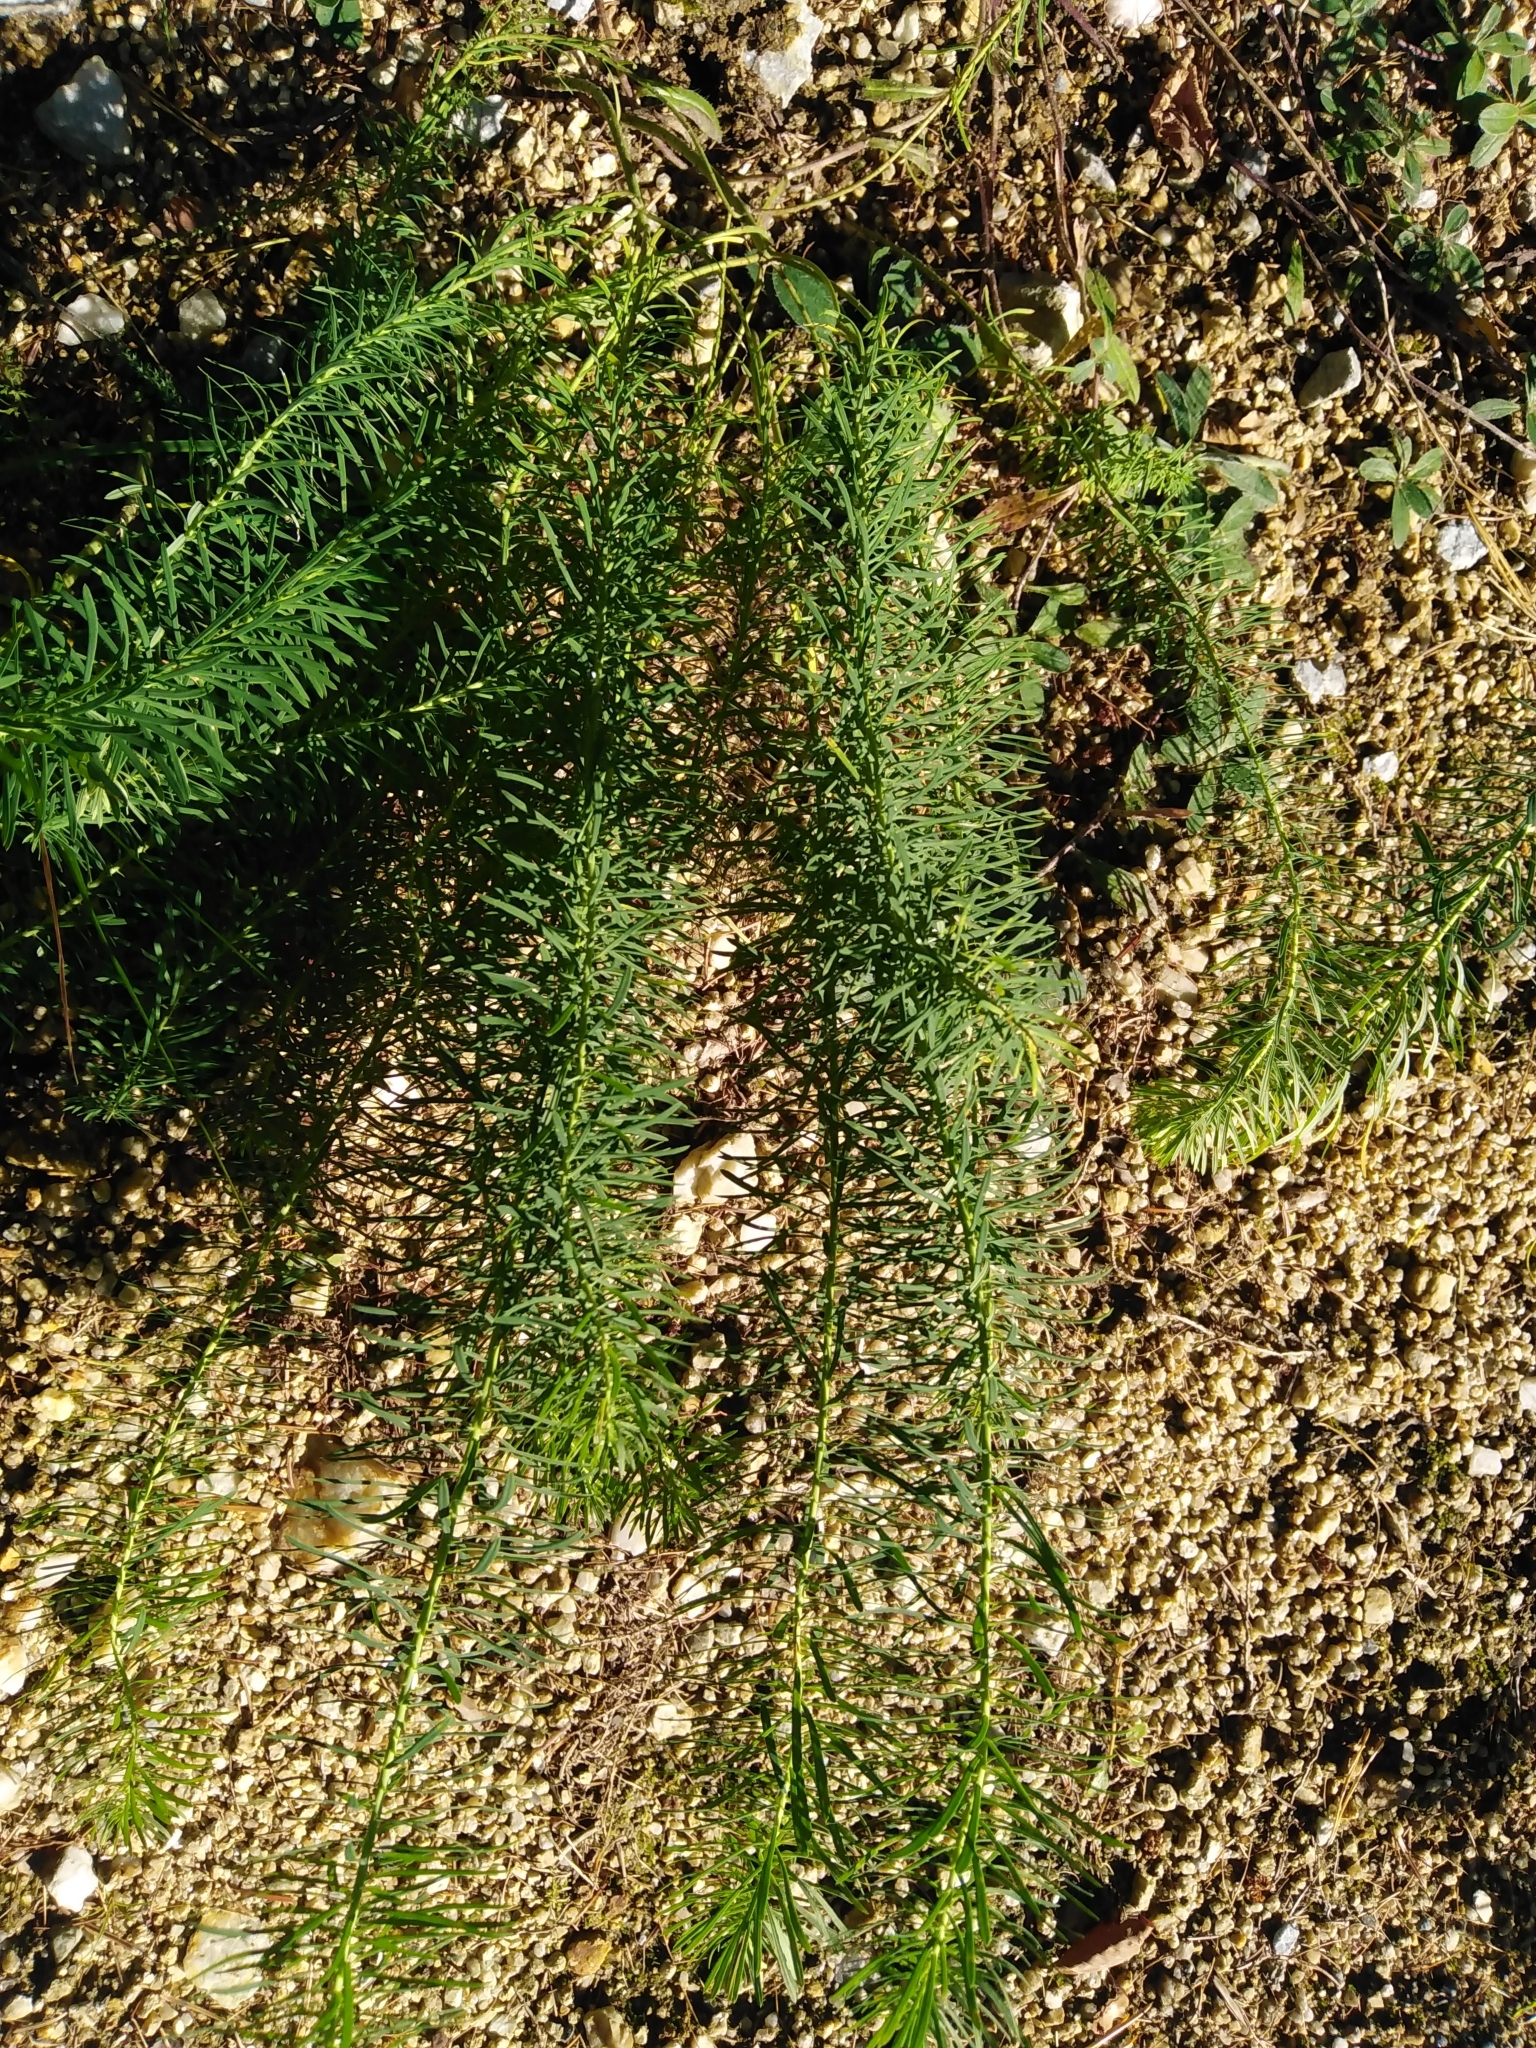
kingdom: Plantae
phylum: Tracheophyta
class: Magnoliopsida
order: Malpighiales
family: Euphorbiaceae
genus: Euphorbia
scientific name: Euphorbia cyparissias
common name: Cypress spurge
